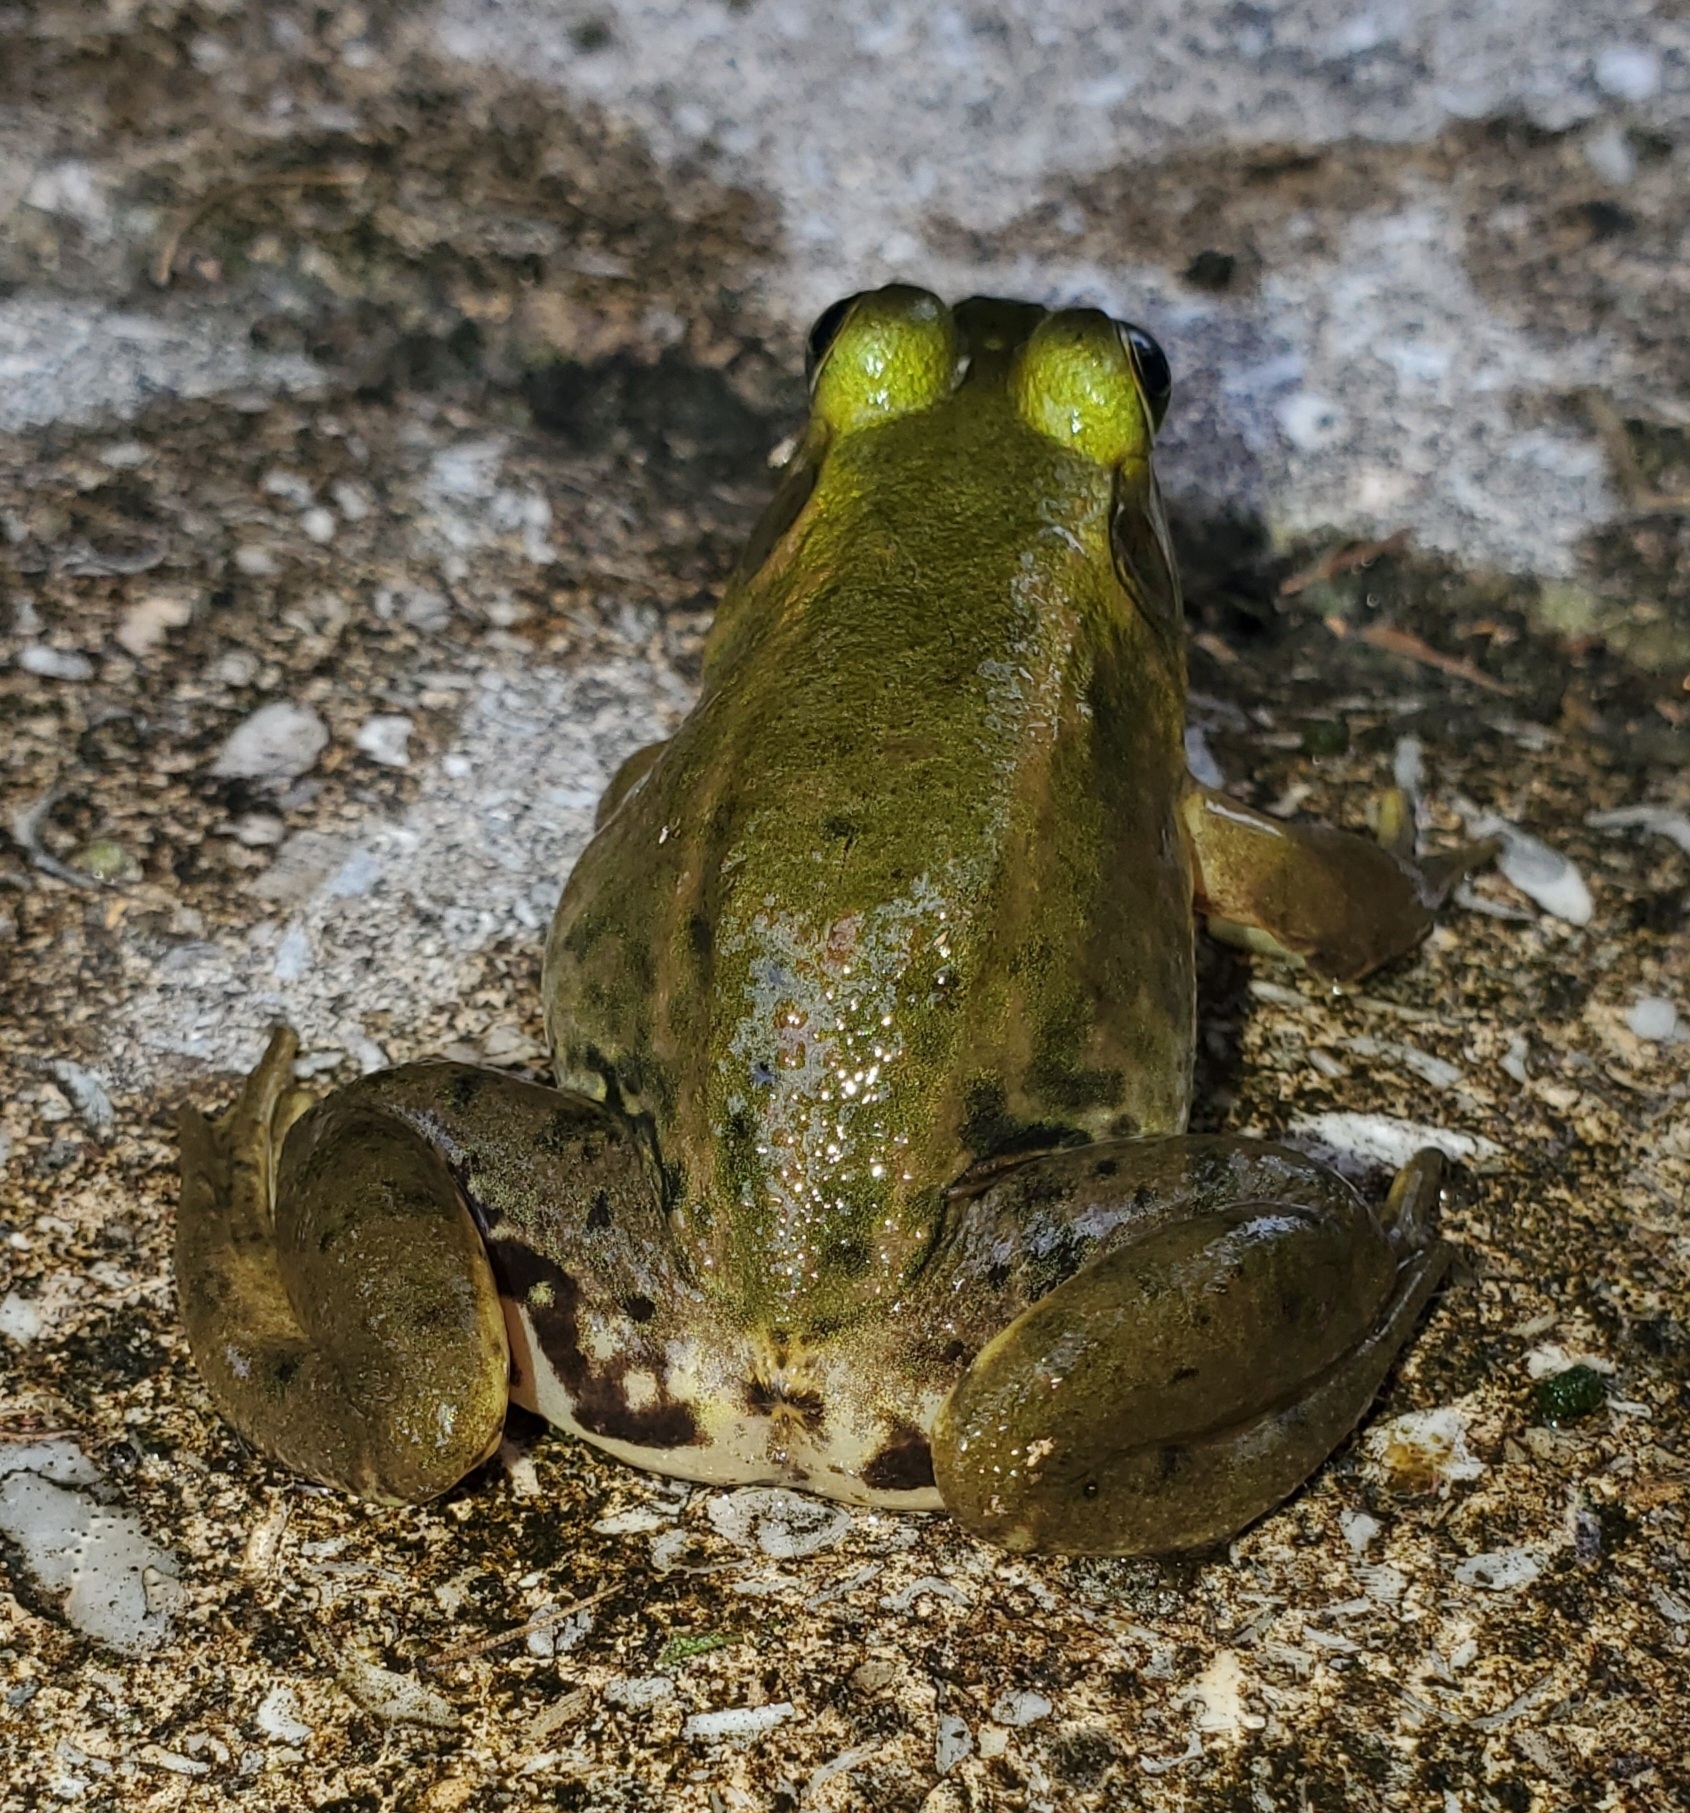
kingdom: Animalia
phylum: Chordata
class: Amphibia
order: Anura
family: Ranidae
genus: Lithobates
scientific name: Lithobates grylio
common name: Pig frog
